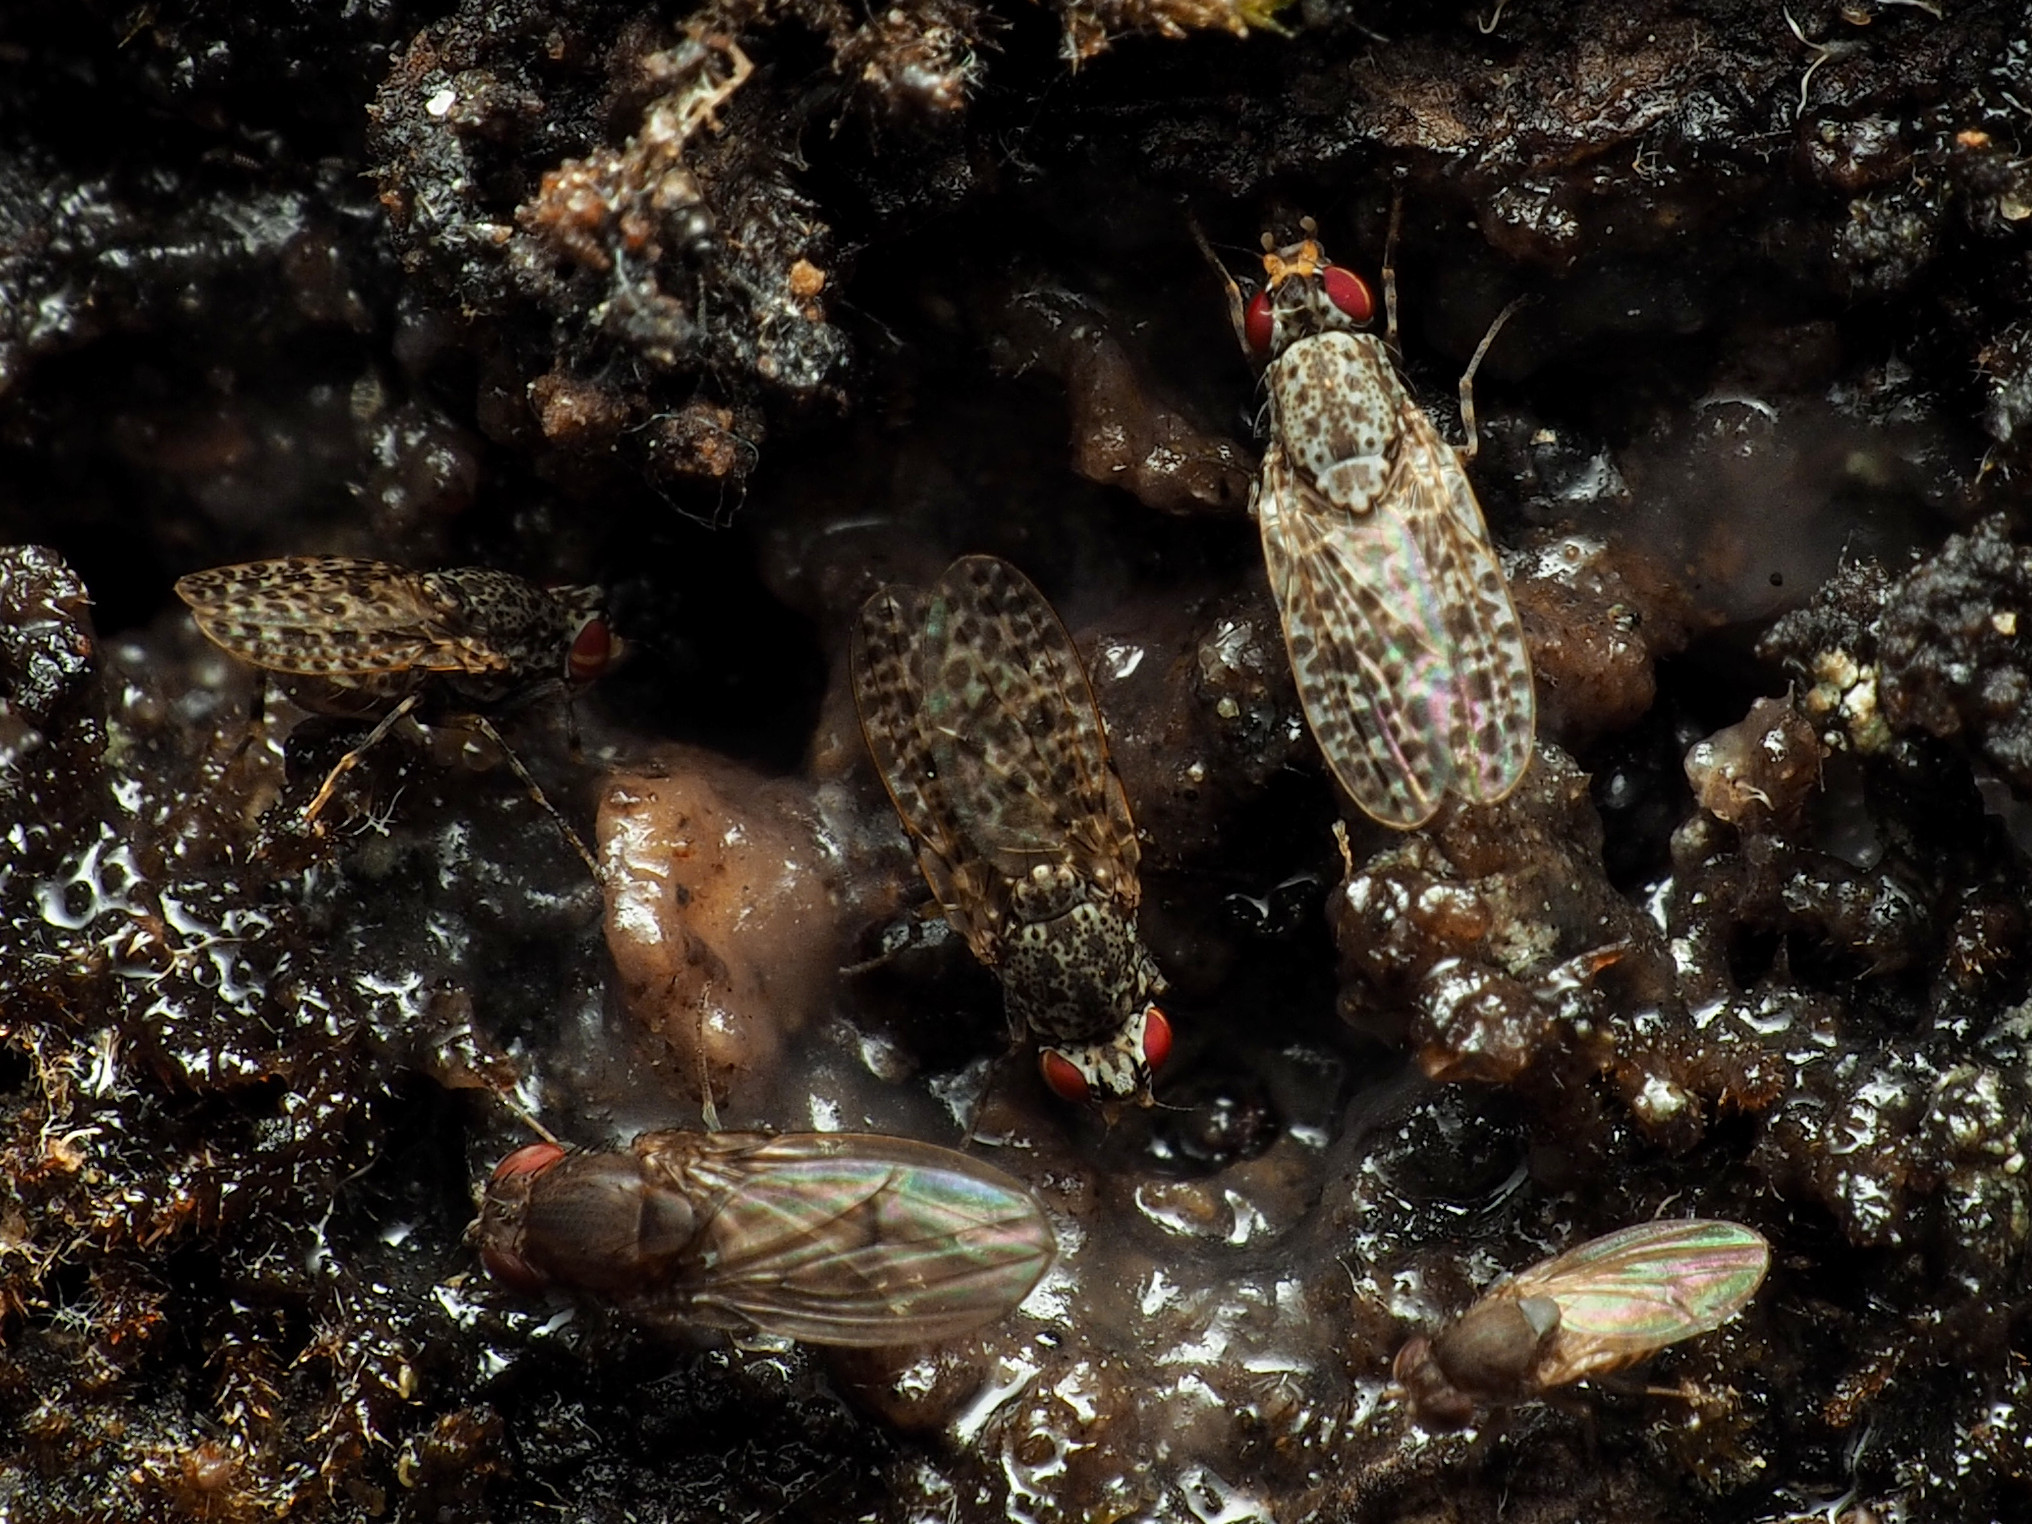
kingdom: Animalia
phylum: Arthropoda
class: Insecta
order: Diptera
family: Odiniidae
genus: Traginops
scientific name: Traginops irroratus
